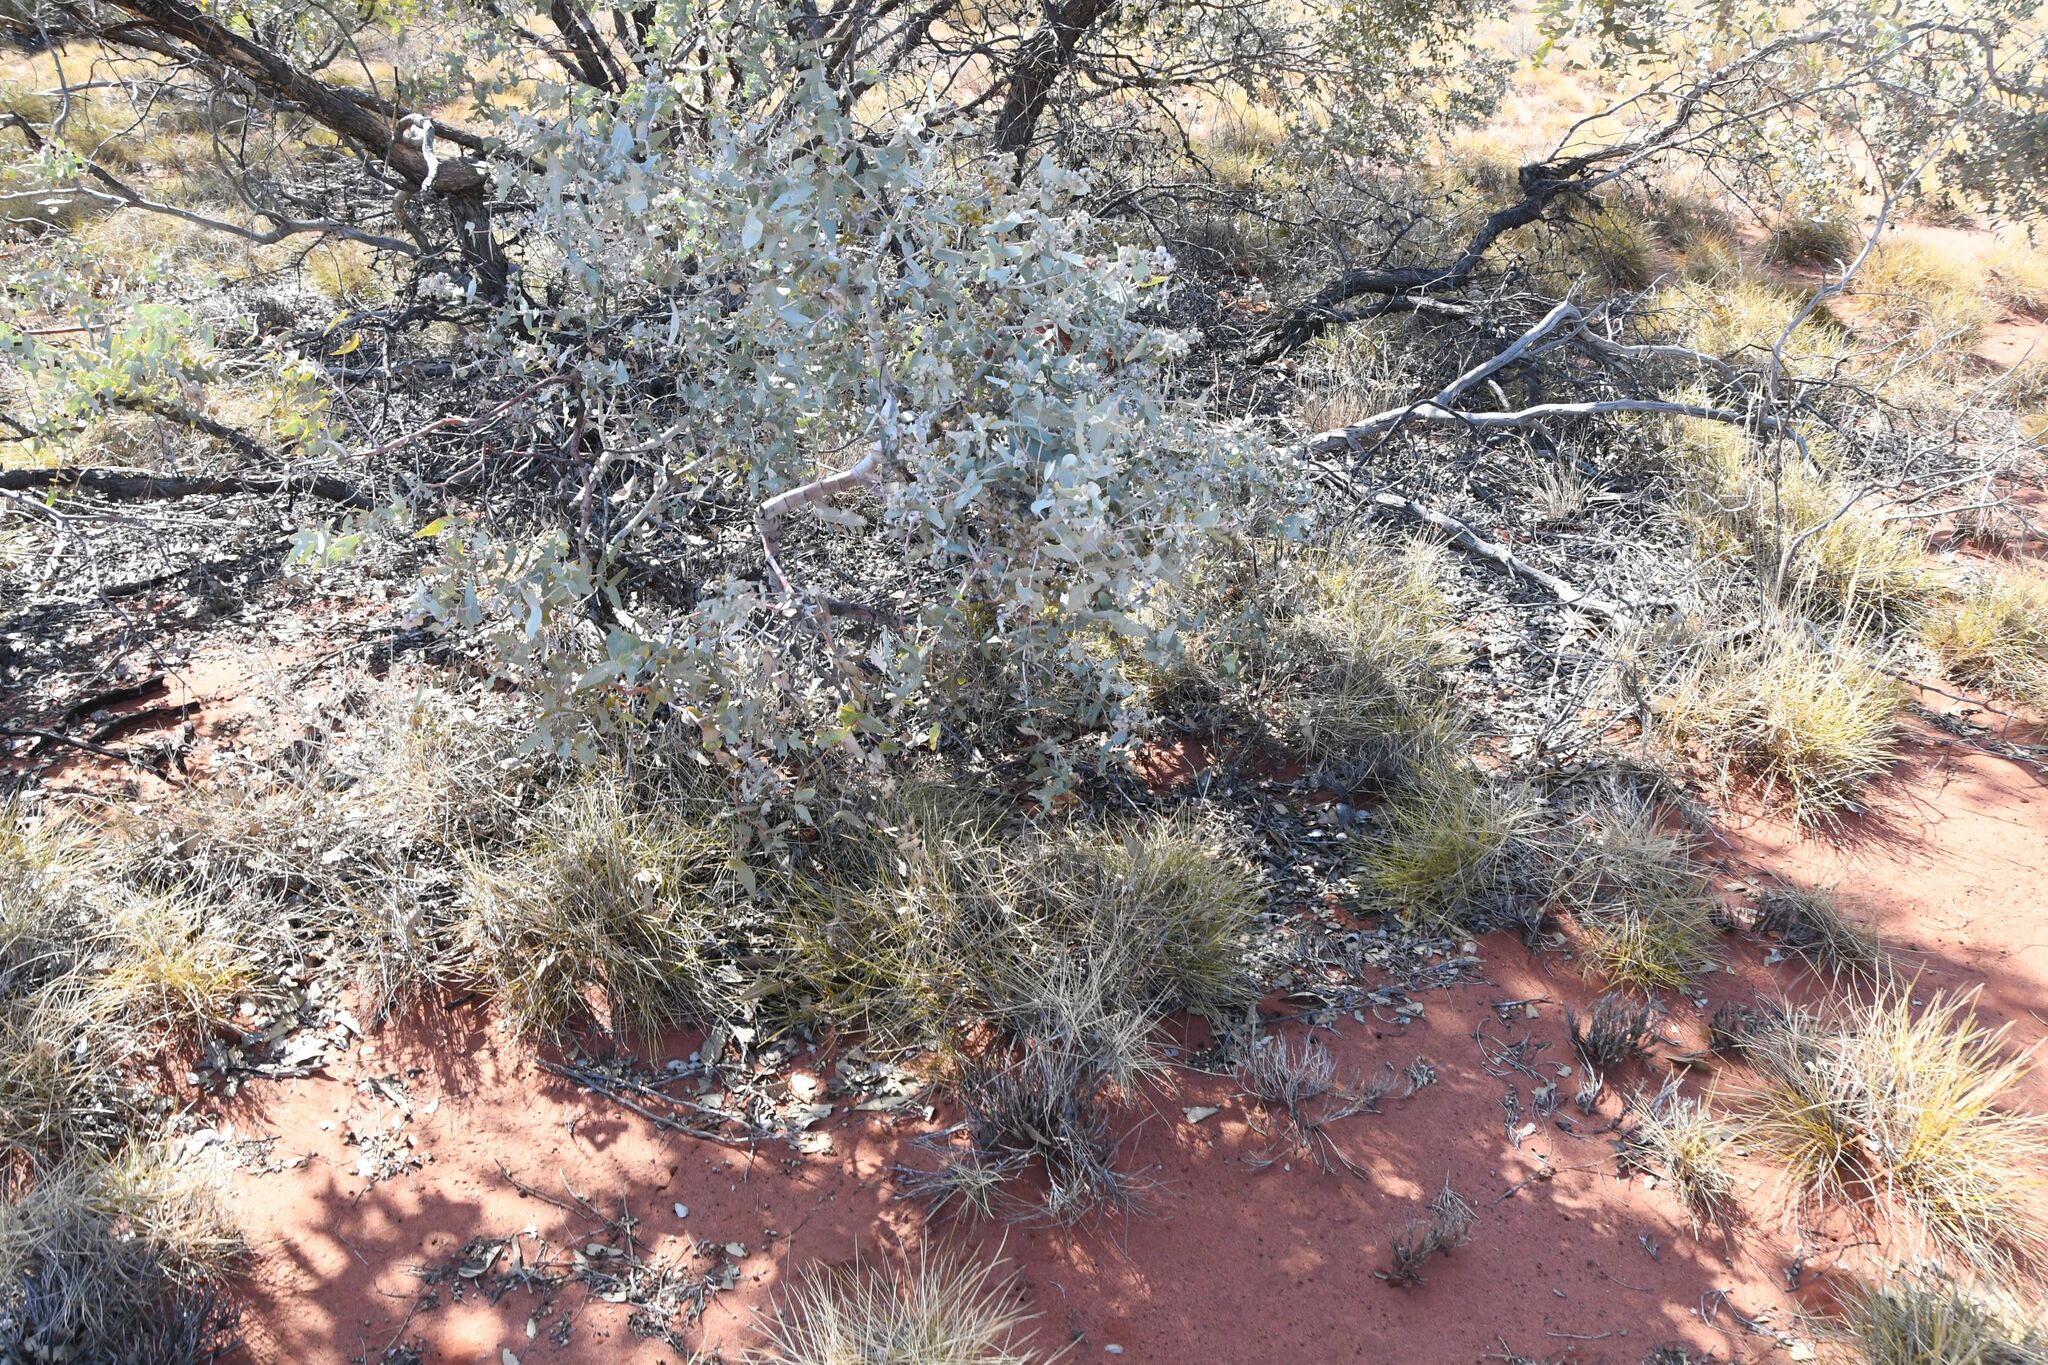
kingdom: Plantae
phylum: Tracheophyta
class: Magnoliopsida
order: Myrtales
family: Myrtaceae
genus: Eucalyptus
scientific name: Eucalyptus gamophylla
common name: Blue mallee
